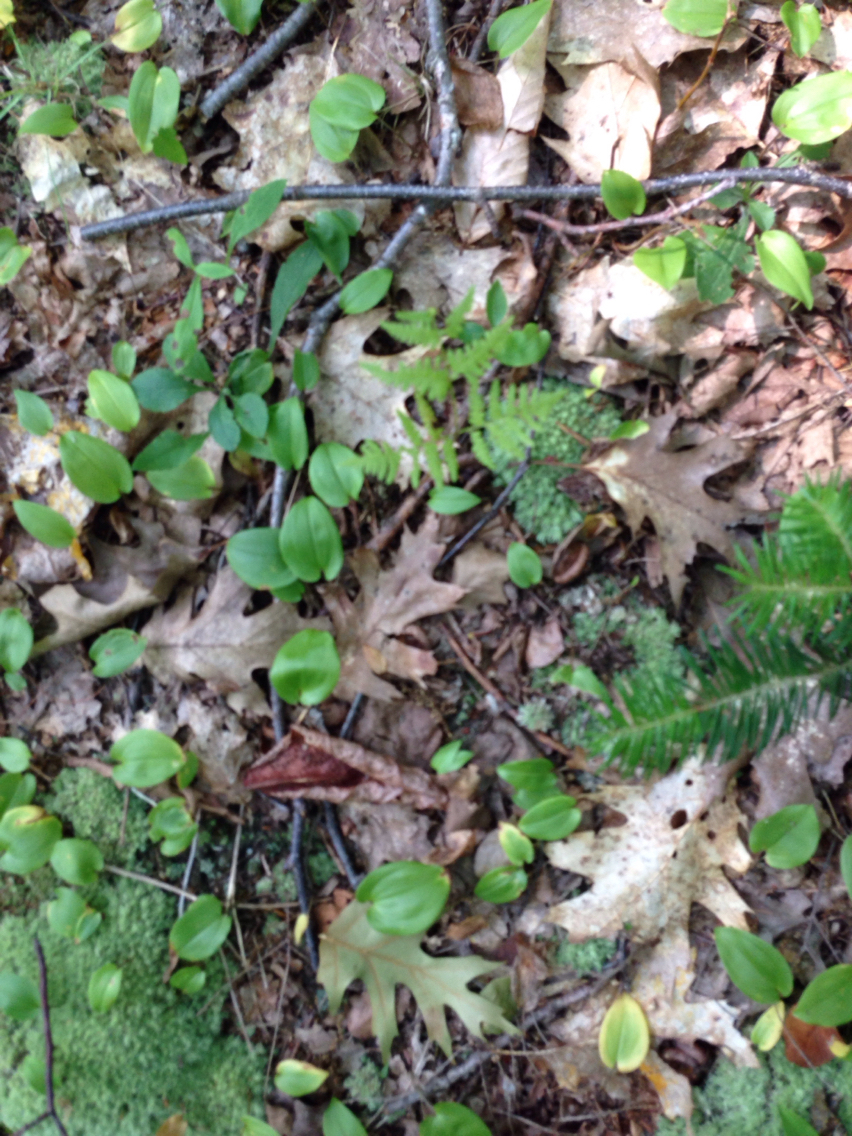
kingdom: Plantae
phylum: Tracheophyta
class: Polypodiopsida
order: Polypodiales
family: Cystopteridaceae
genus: Gymnocarpium
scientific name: Gymnocarpium dryopteris
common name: Oak fern
